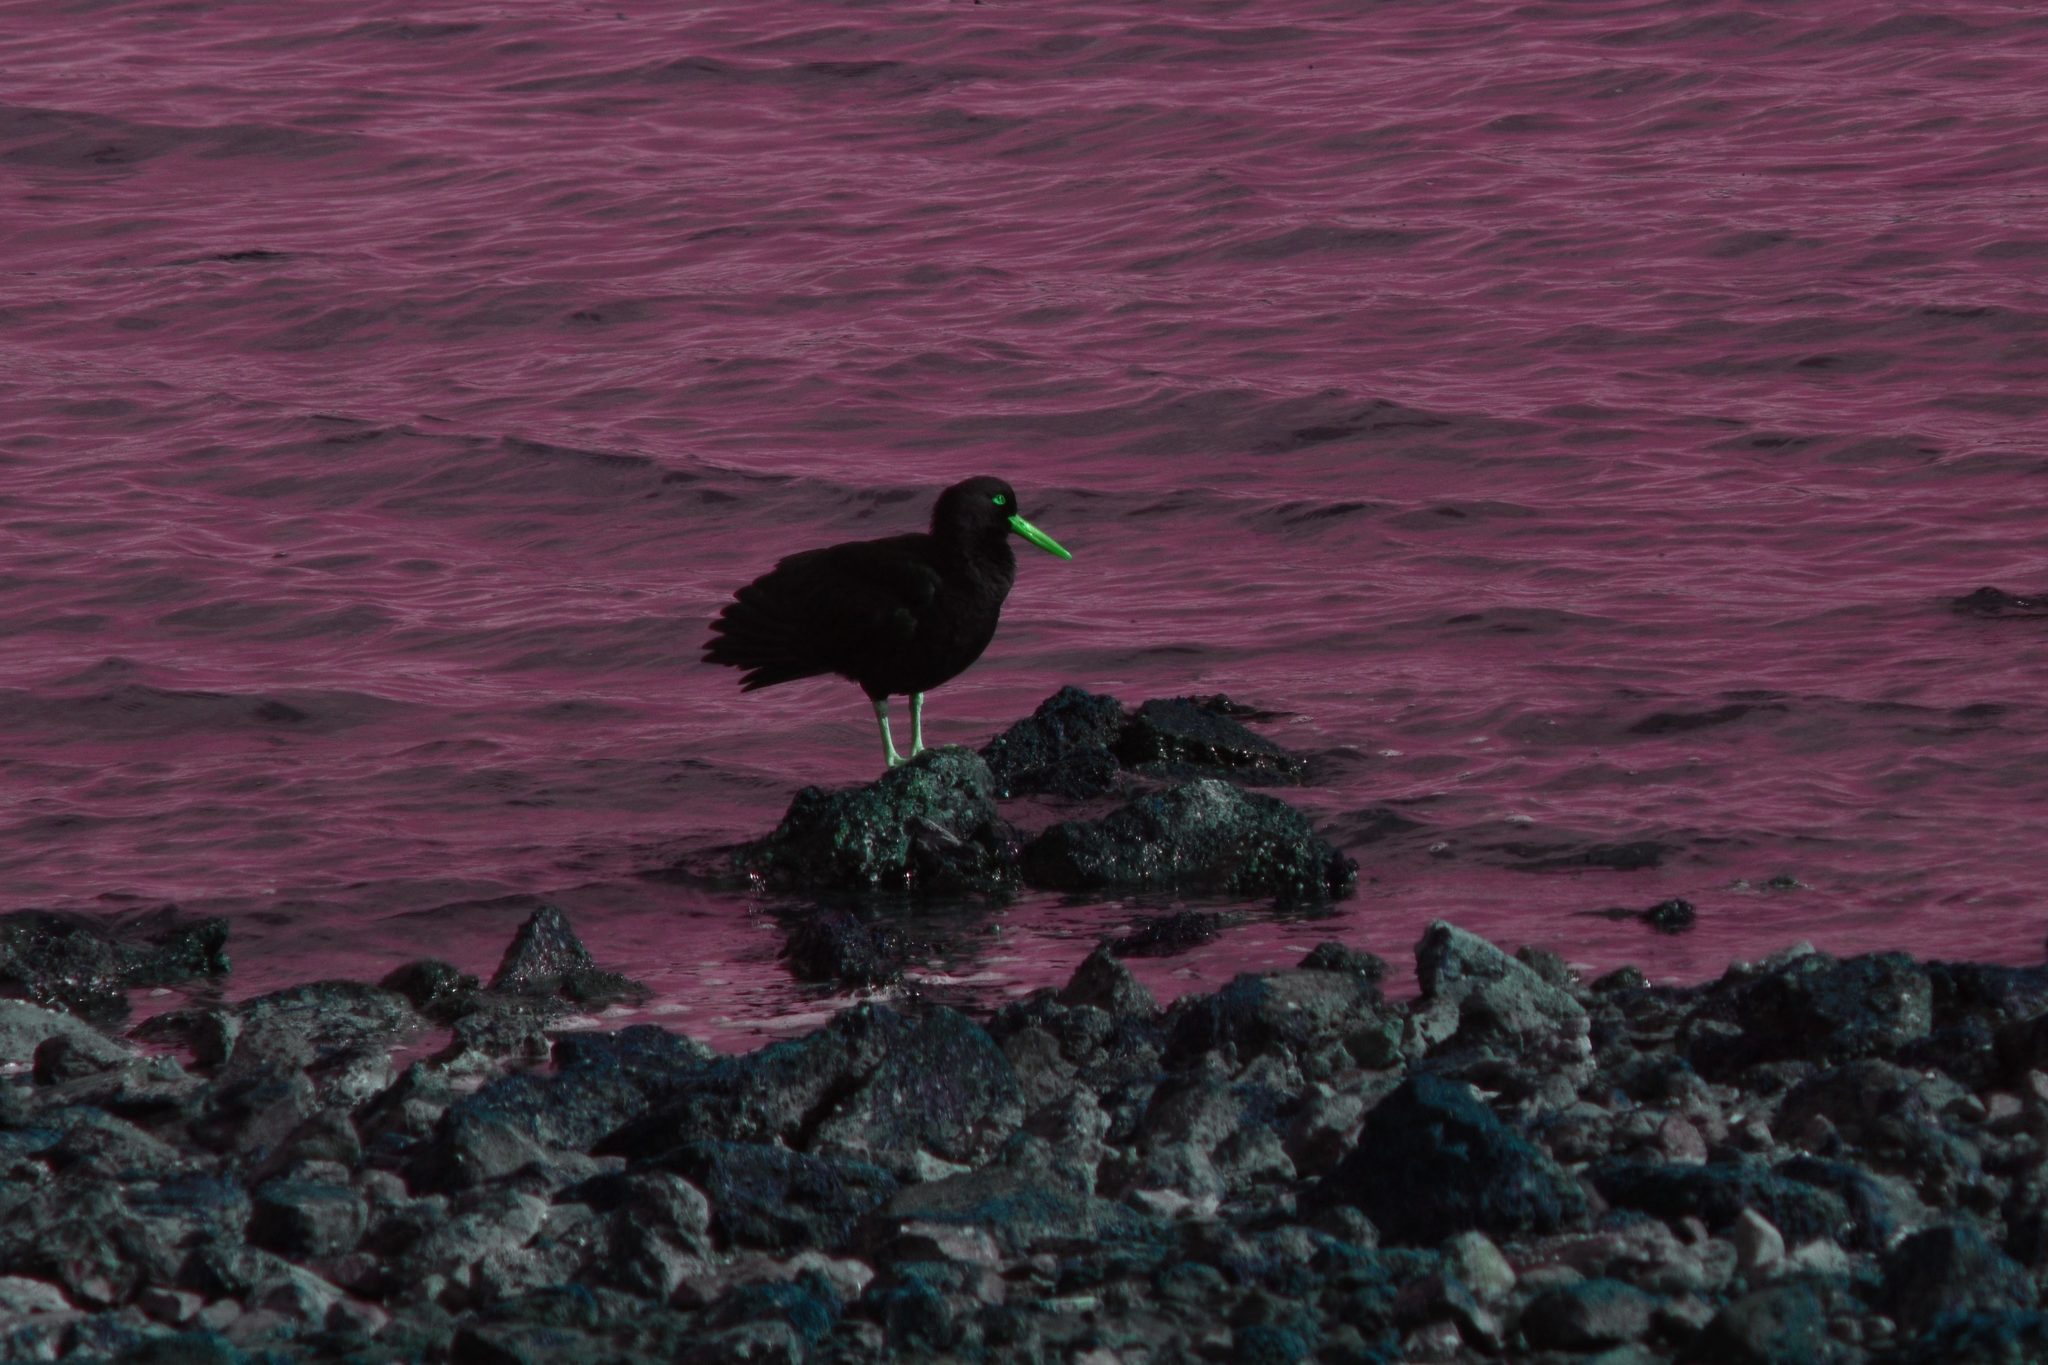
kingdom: Animalia
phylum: Chordata
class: Aves
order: Charadriiformes
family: Haematopodidae
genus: Haematopus
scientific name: Haematopus bachmani
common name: Black oystercatcher
